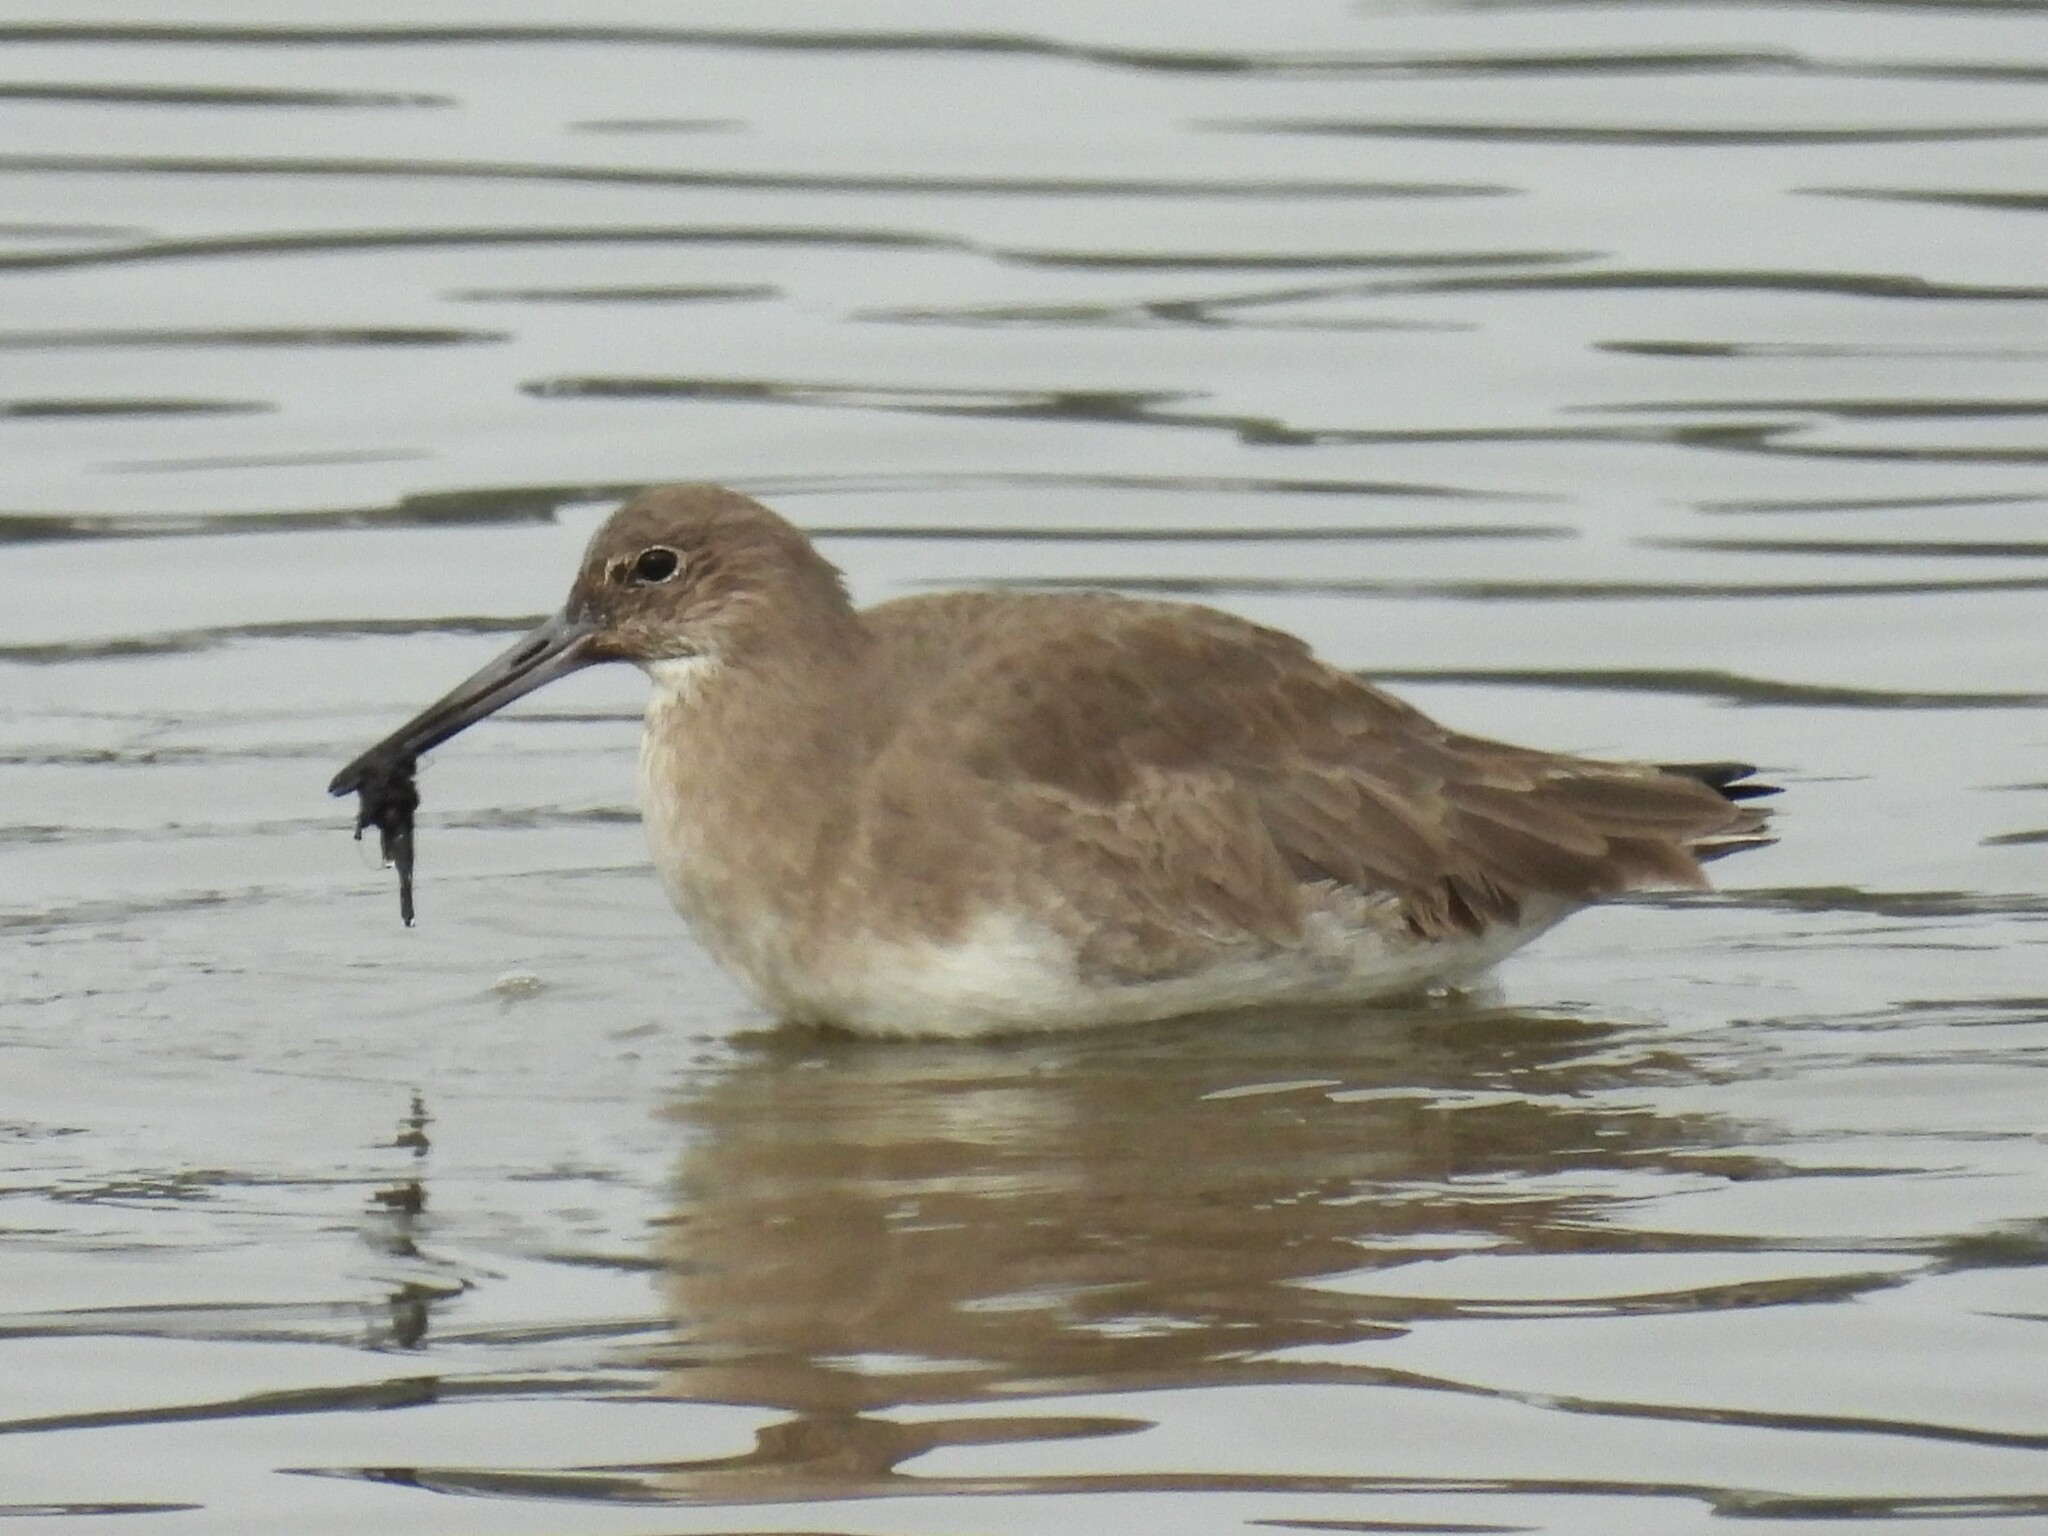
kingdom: Animalia
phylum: Chordata
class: Aves
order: Charadriiformes
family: Scolopacidae
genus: Tringa
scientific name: Tringa semipalmata
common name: Willet
